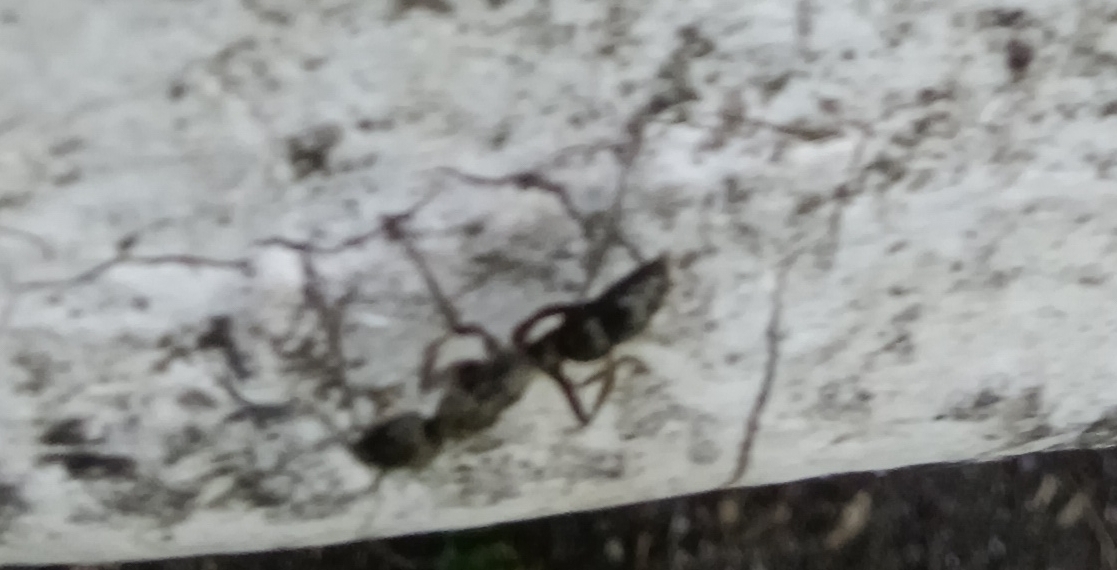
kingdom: Animalia
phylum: Arthropoda
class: Insecta
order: Hymenoptera
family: Formicidae
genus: Neoponera
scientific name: Neoponera
